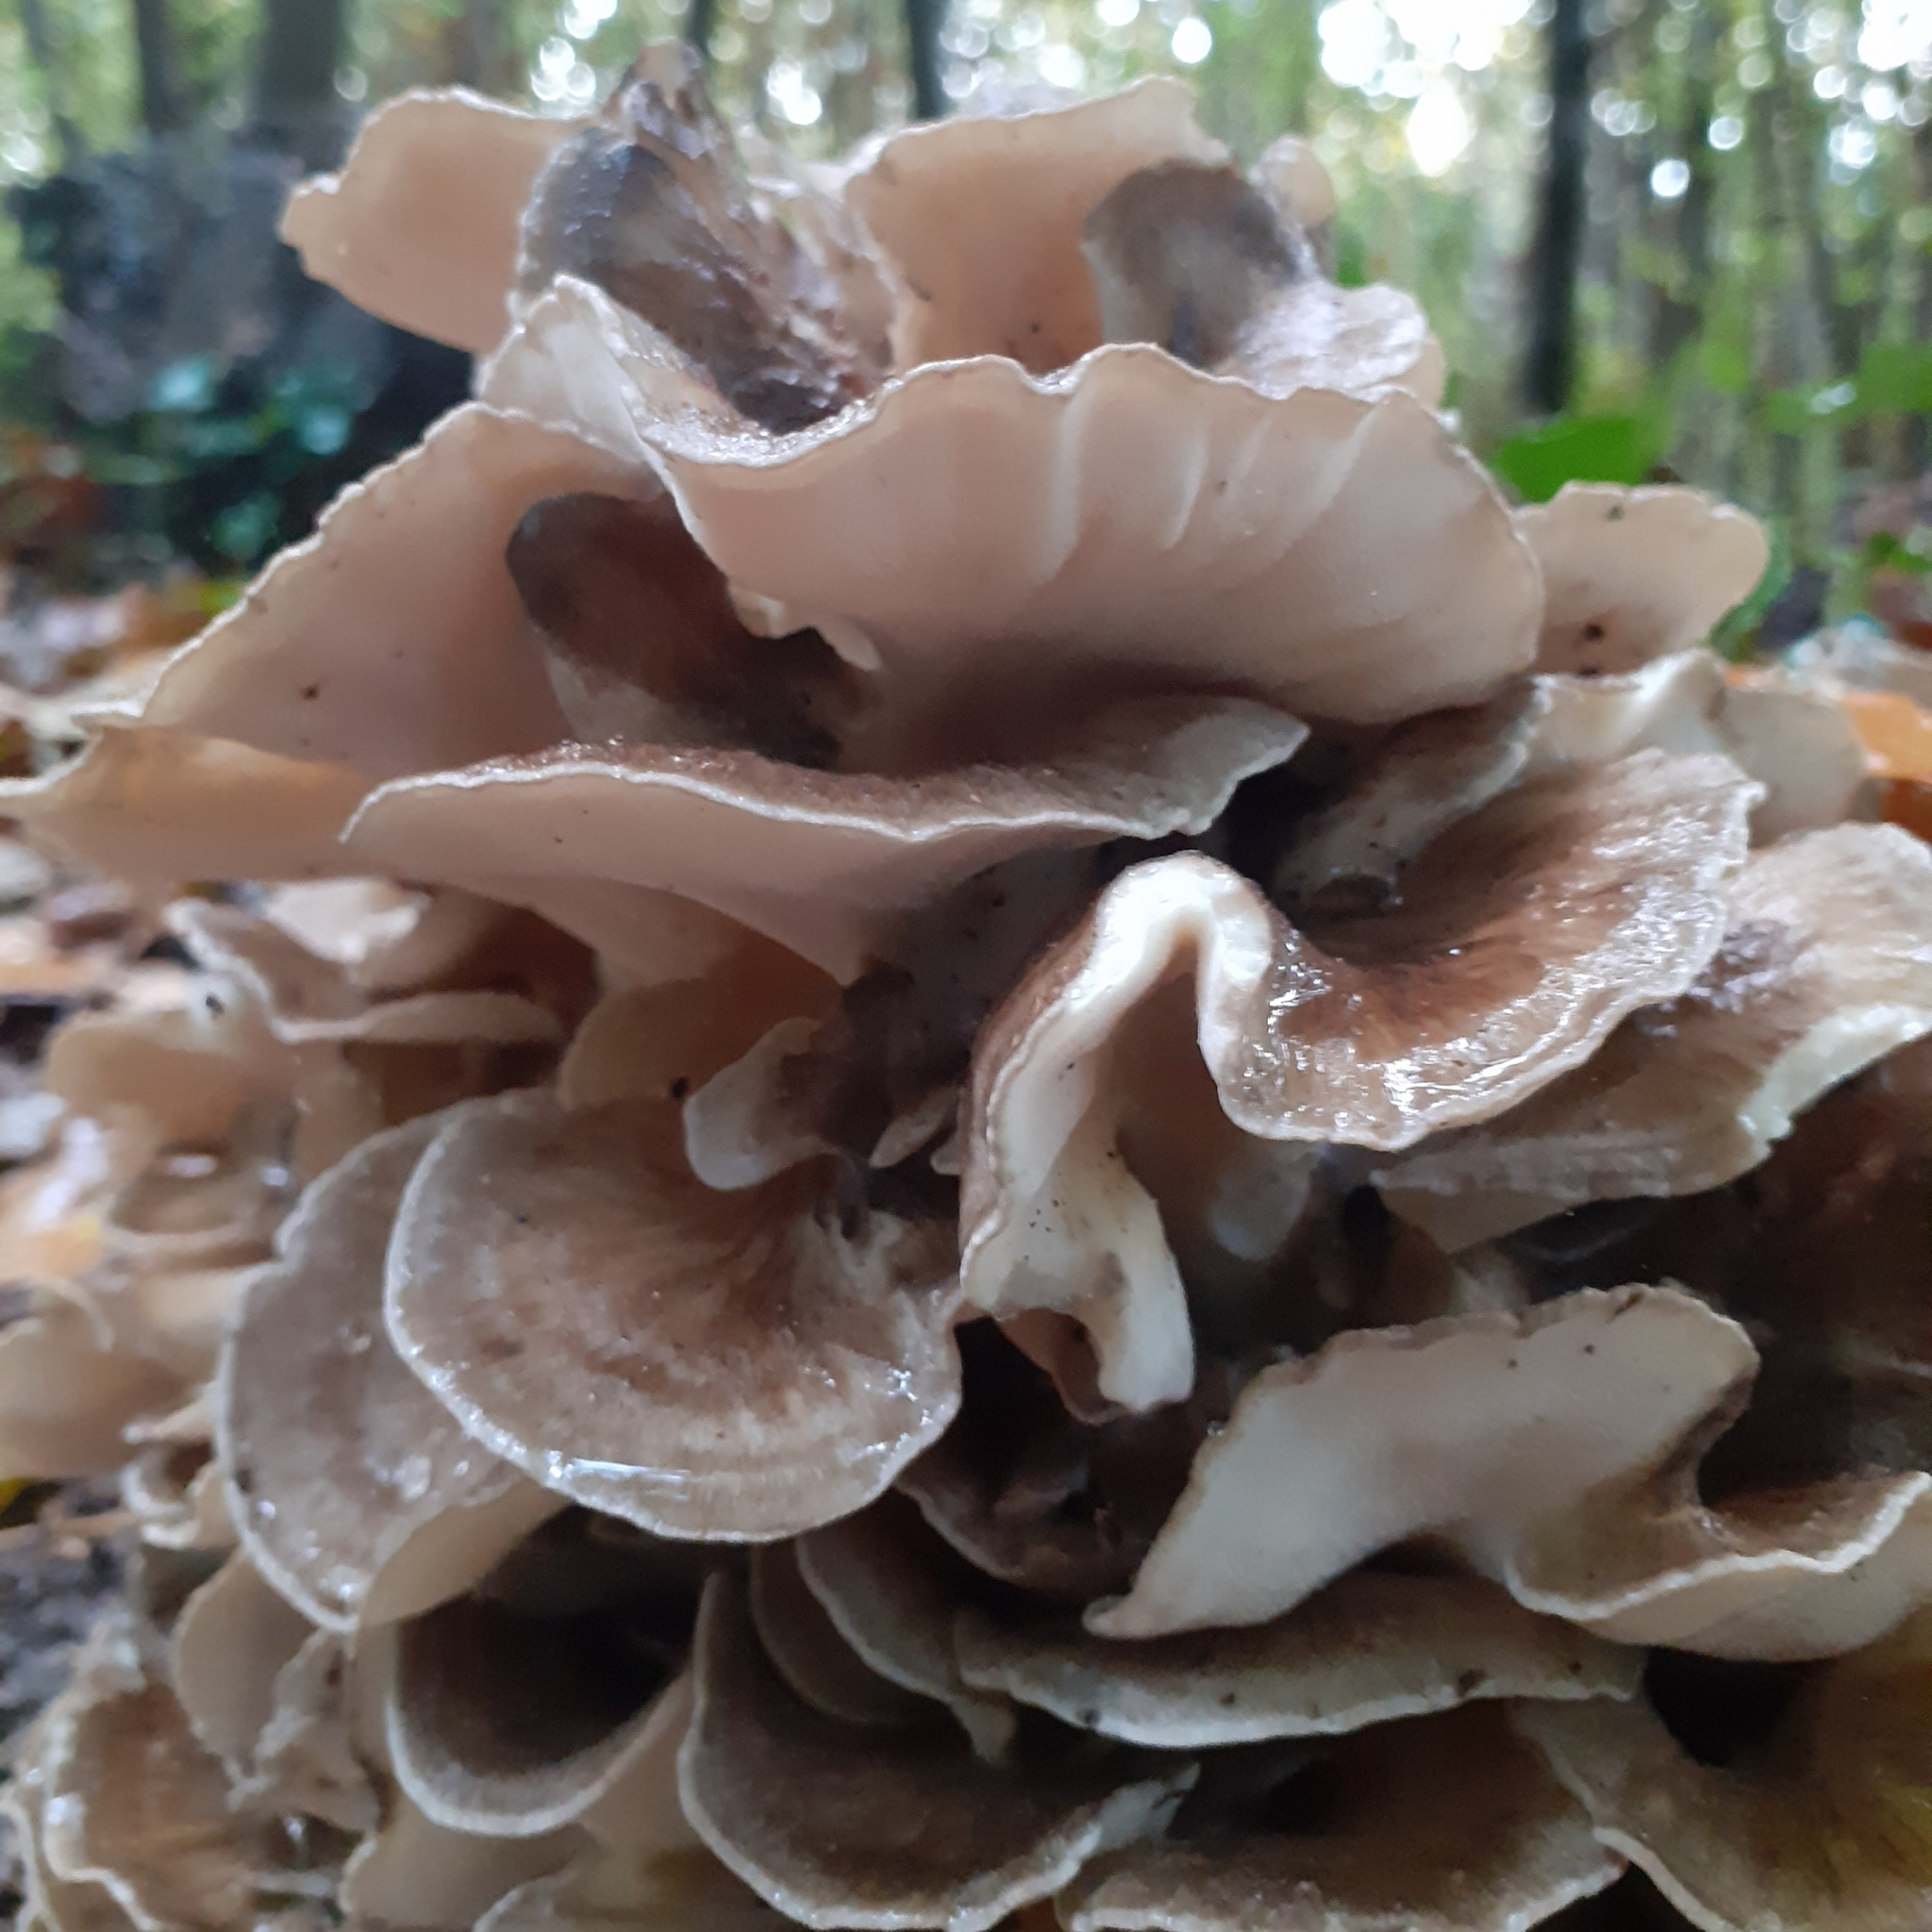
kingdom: Fungi
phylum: Basidiomycota
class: Agaricomycetes
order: Polyporales
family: Grifolaceae
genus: Grifola
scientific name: Grifola frondosa
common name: Hen of the woods
